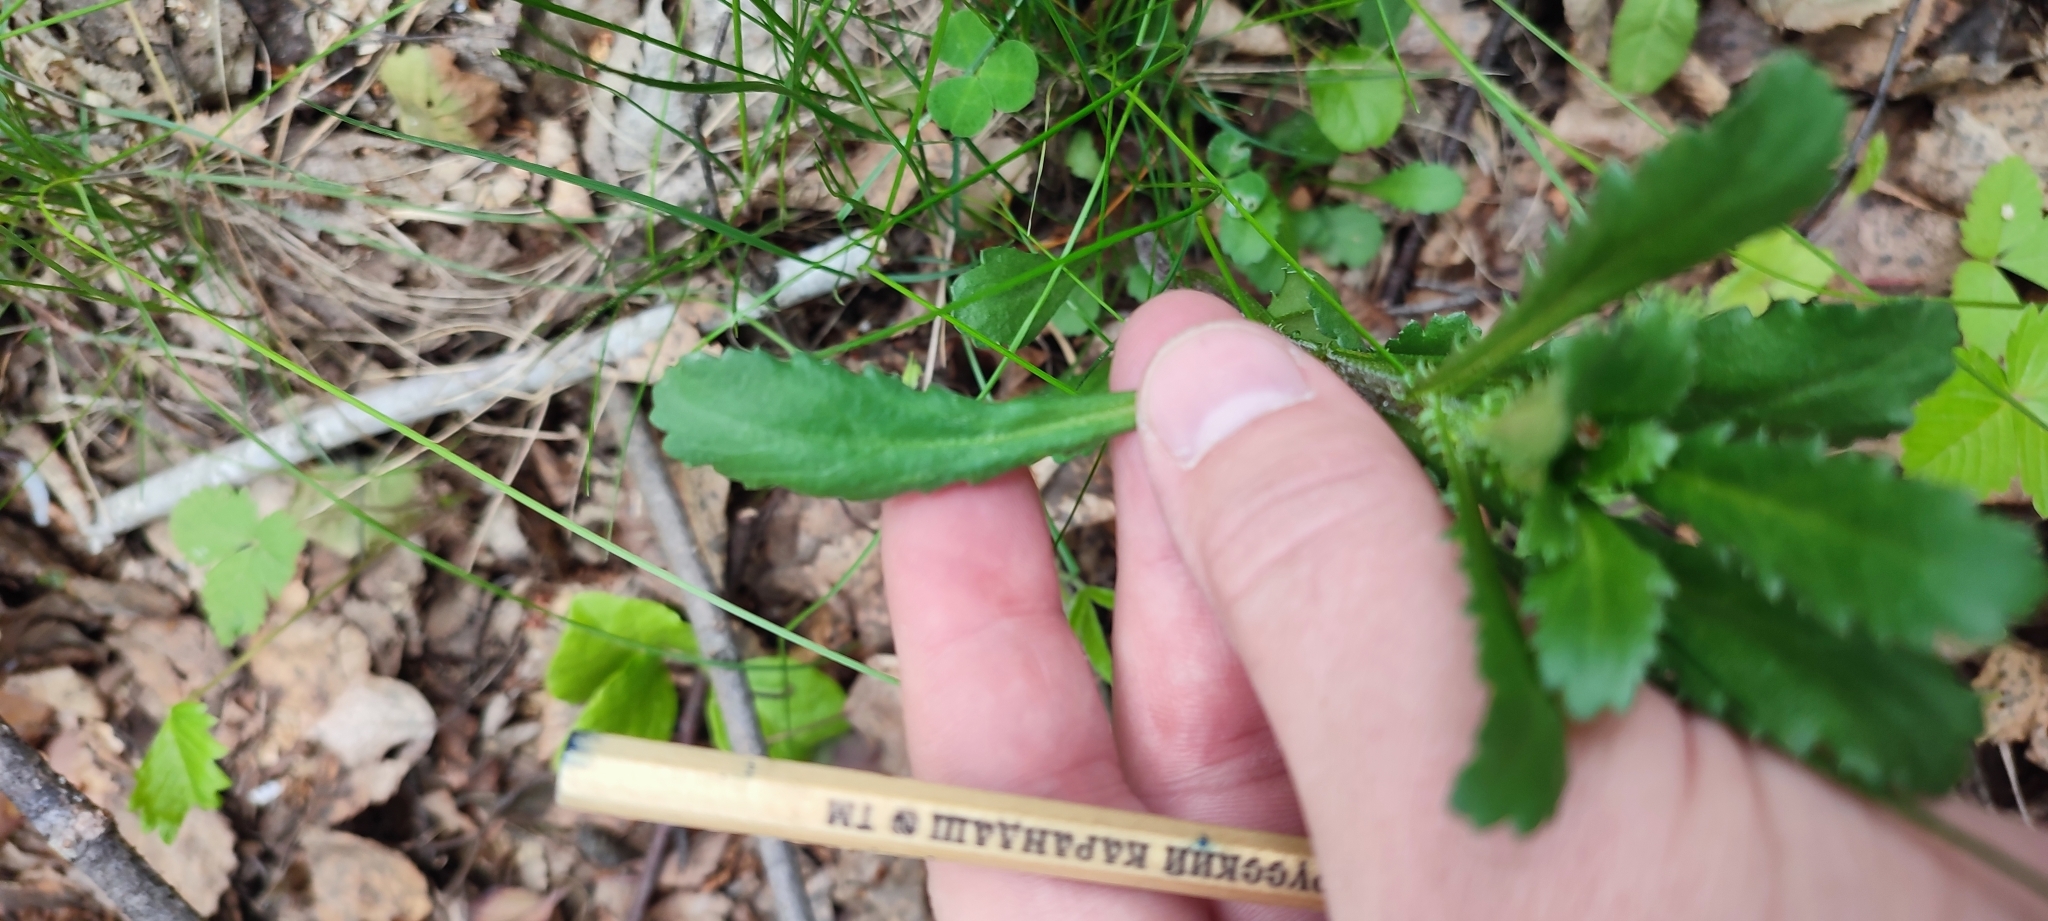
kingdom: Plantae
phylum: Tracheophyta
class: Magnoliopsida
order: Asterales
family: Asteraceae
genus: Leucanthemum
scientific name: Leucanthemum ircutianum
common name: Daisy
